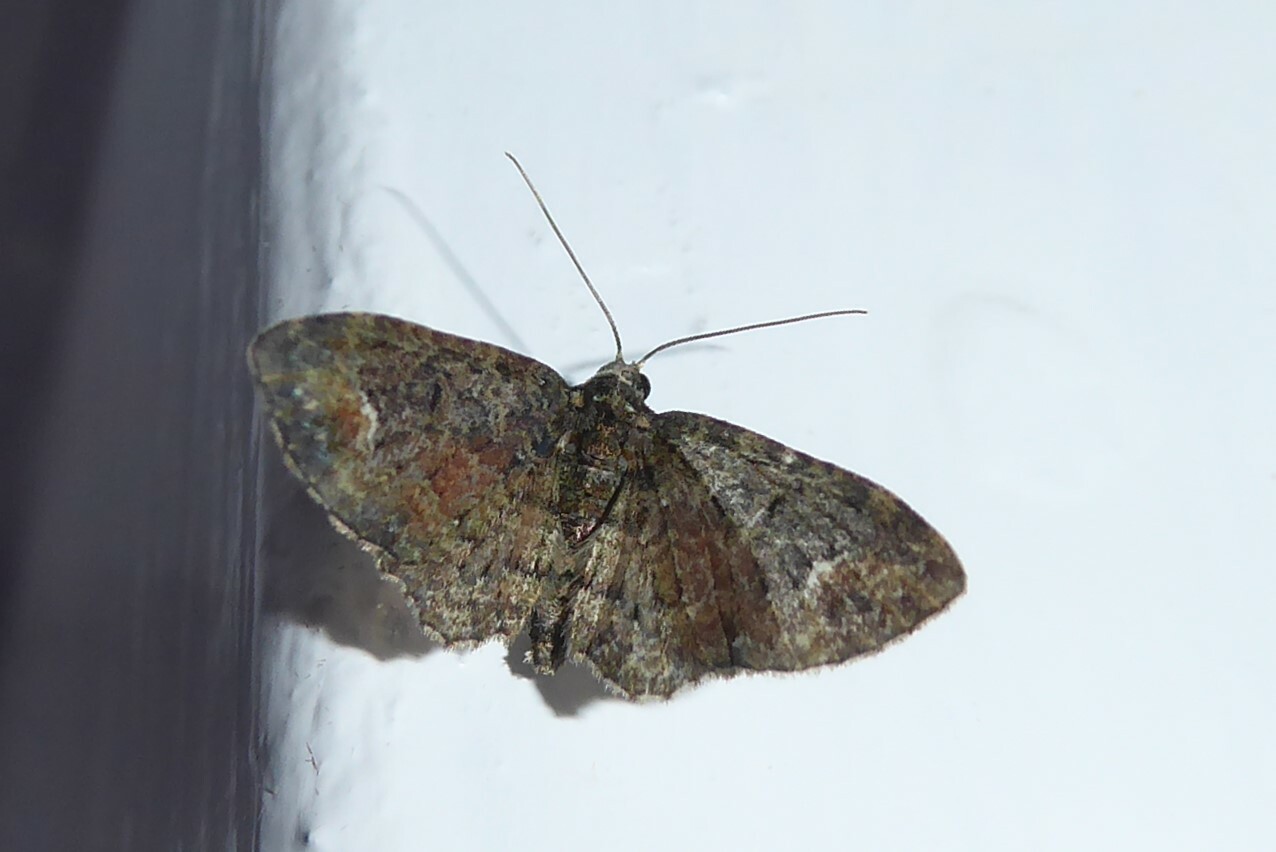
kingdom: Animalia
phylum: Arthropoda
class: Insecta
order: Lepidoptera
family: Geometridae
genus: Pasiphilodes
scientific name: Pasiphilodes testulata
